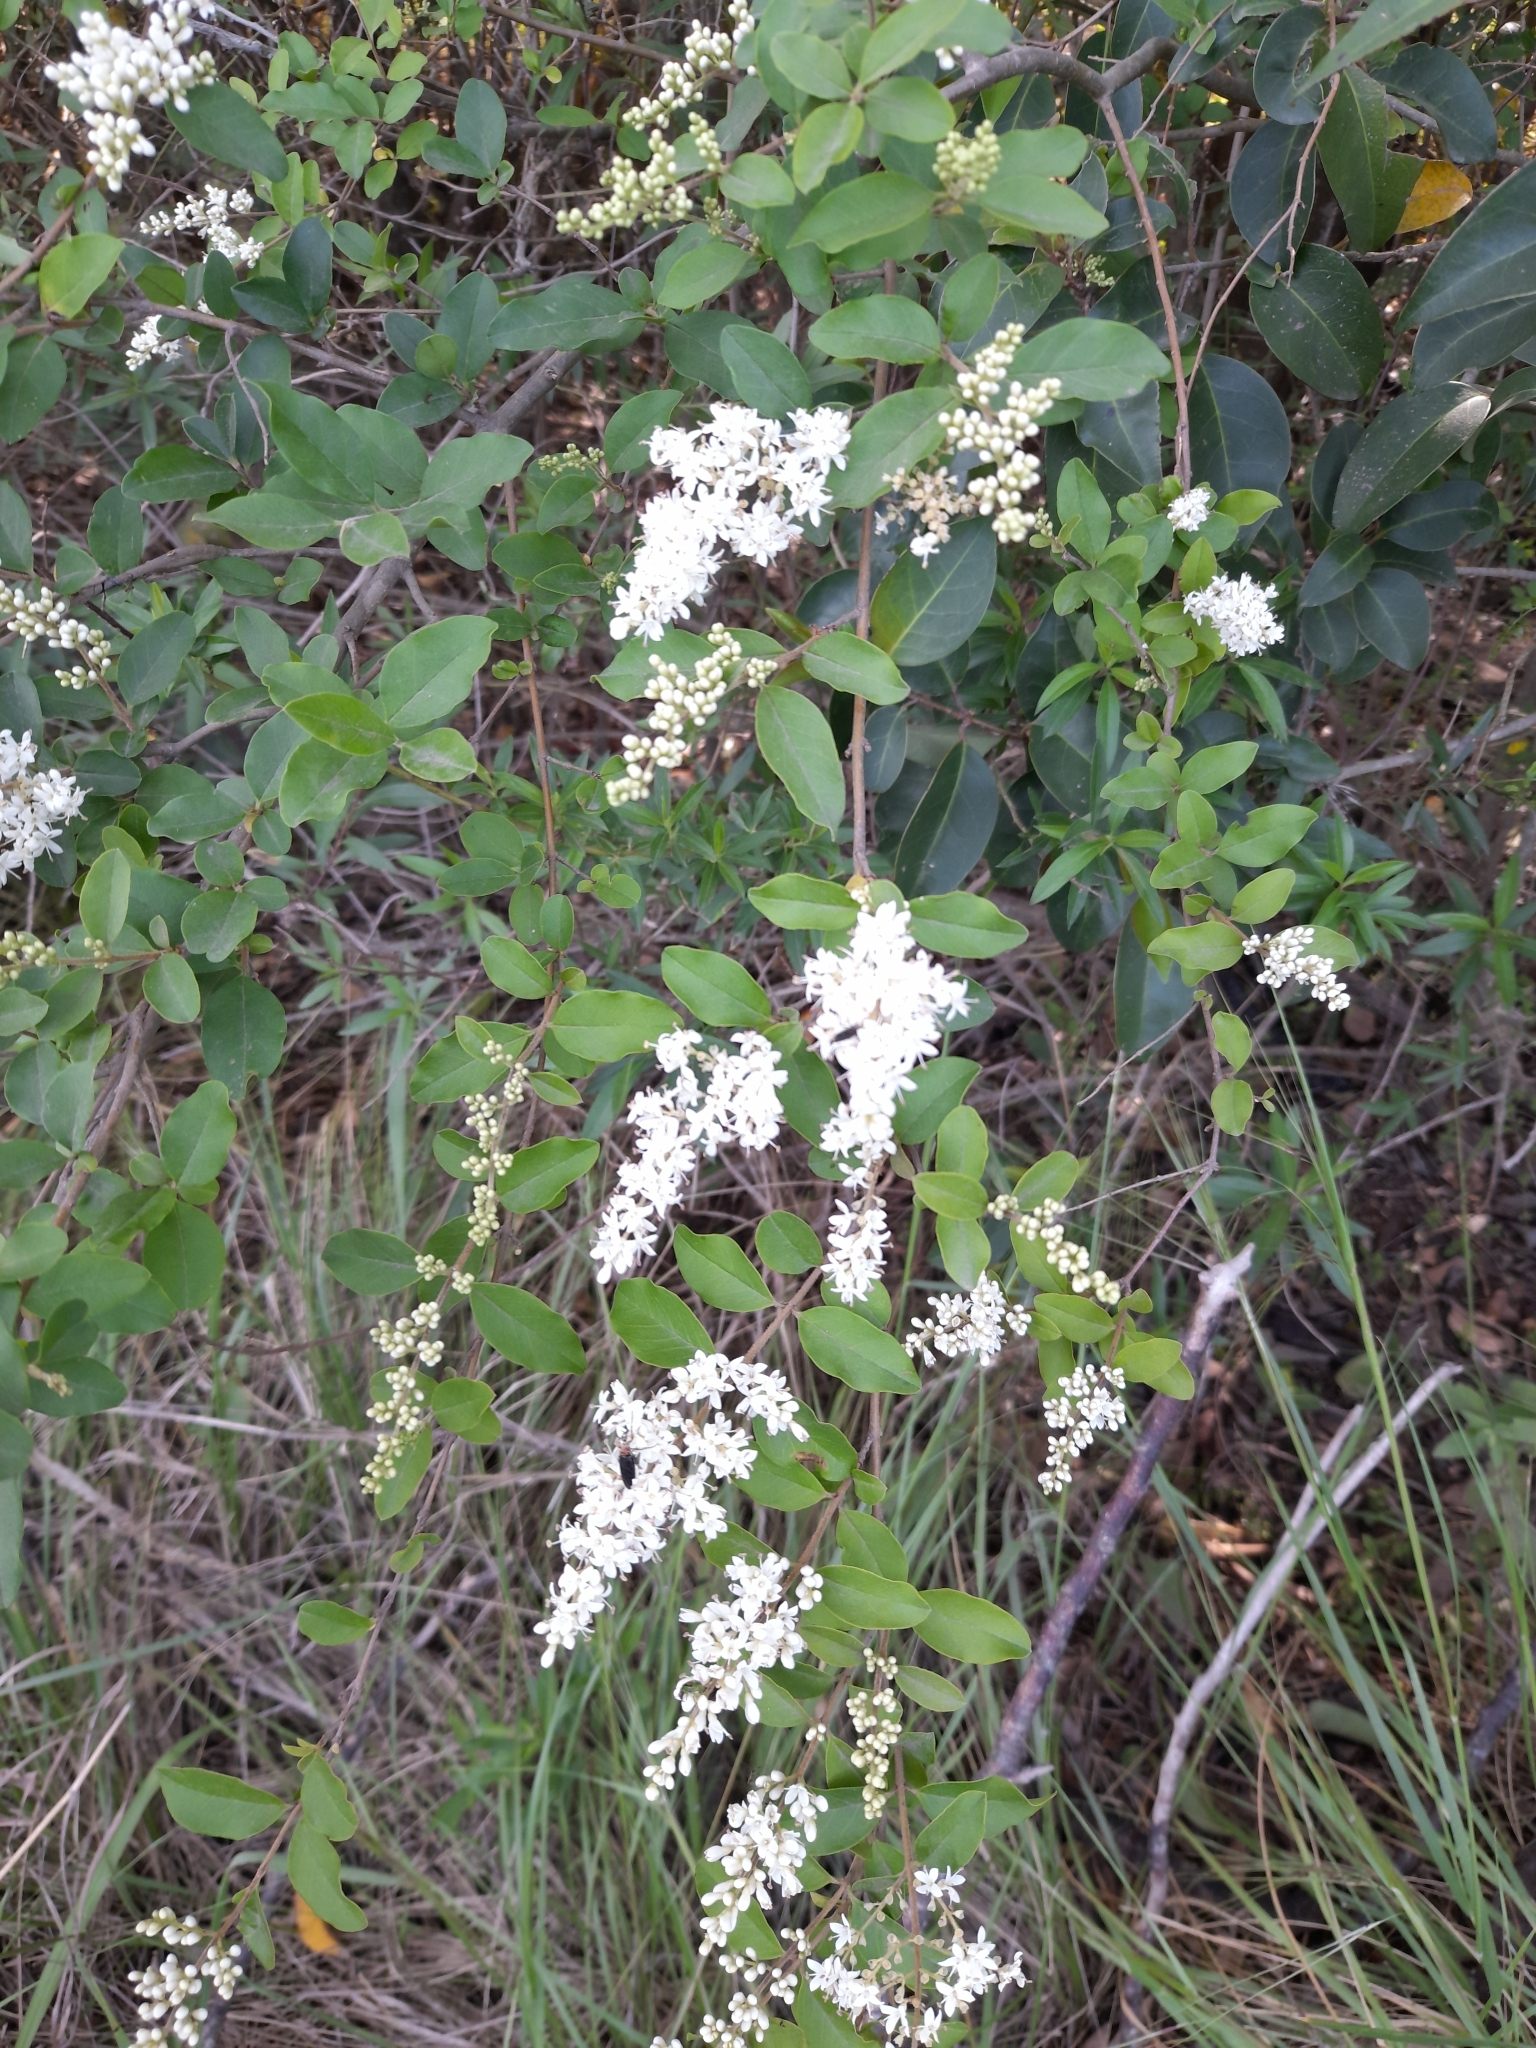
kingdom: Plantae
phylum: Tracheophyta
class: Magnoliopsida
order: Lamiales
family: Oleaceae
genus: Ligustrum
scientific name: Ligustrum sinense
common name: Chinese privet
